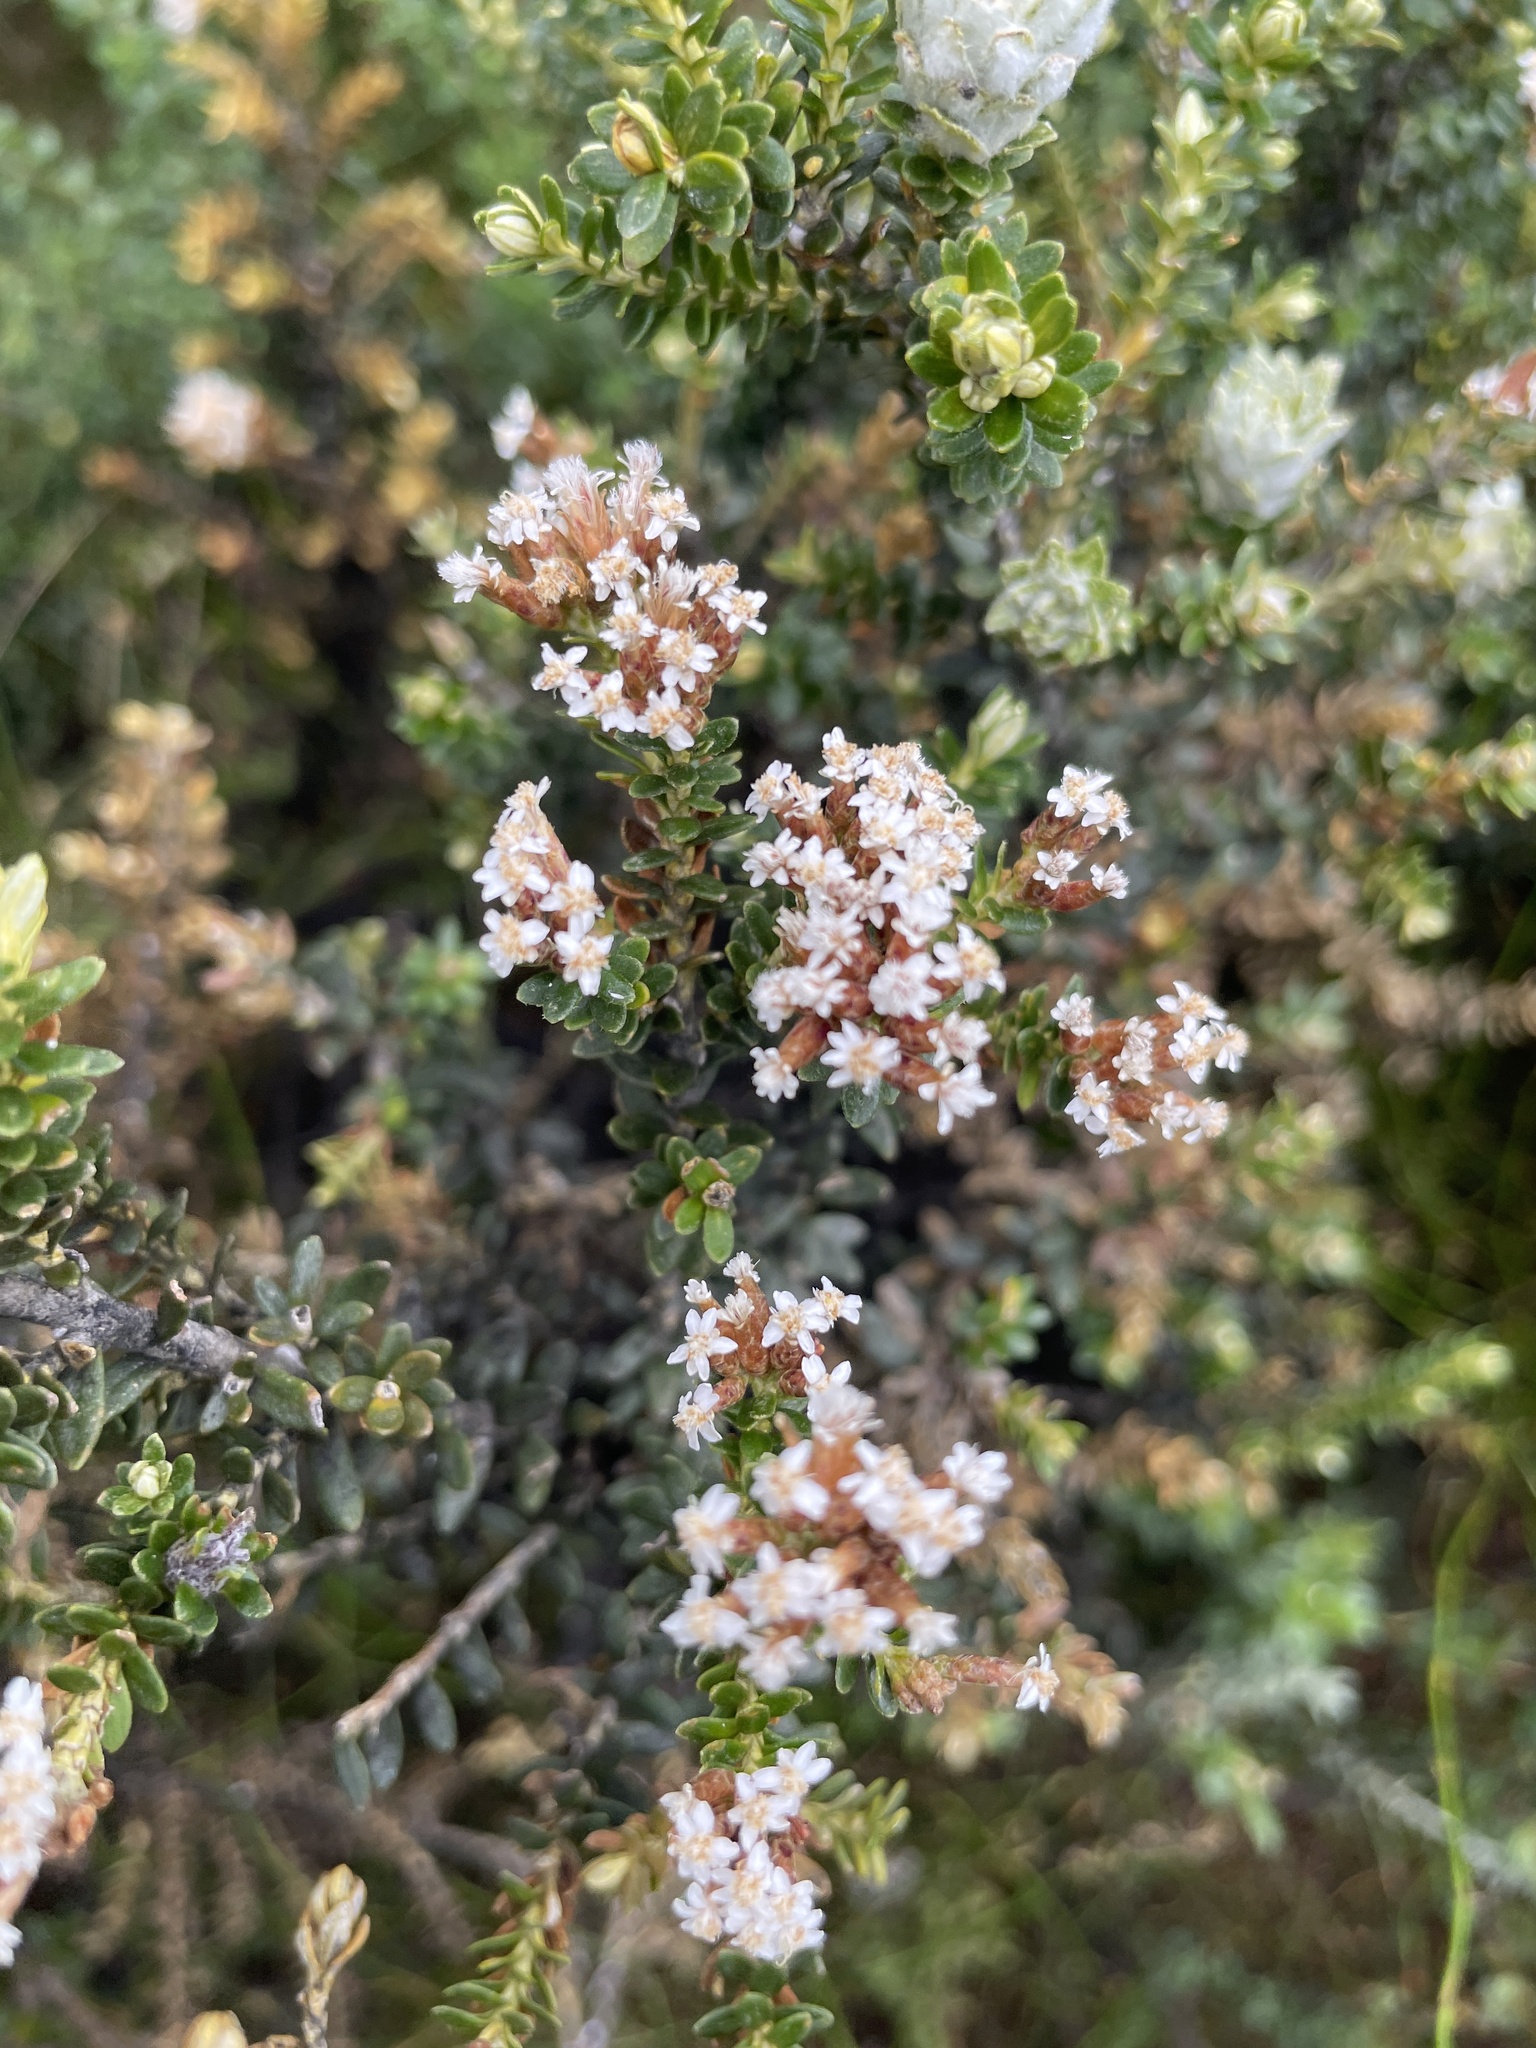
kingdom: Plantae
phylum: Tracheophyta
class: Magnoliopsida
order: Asterales
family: Asteraceae
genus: Ozothamnus
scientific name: Ozothamnus alpinus
